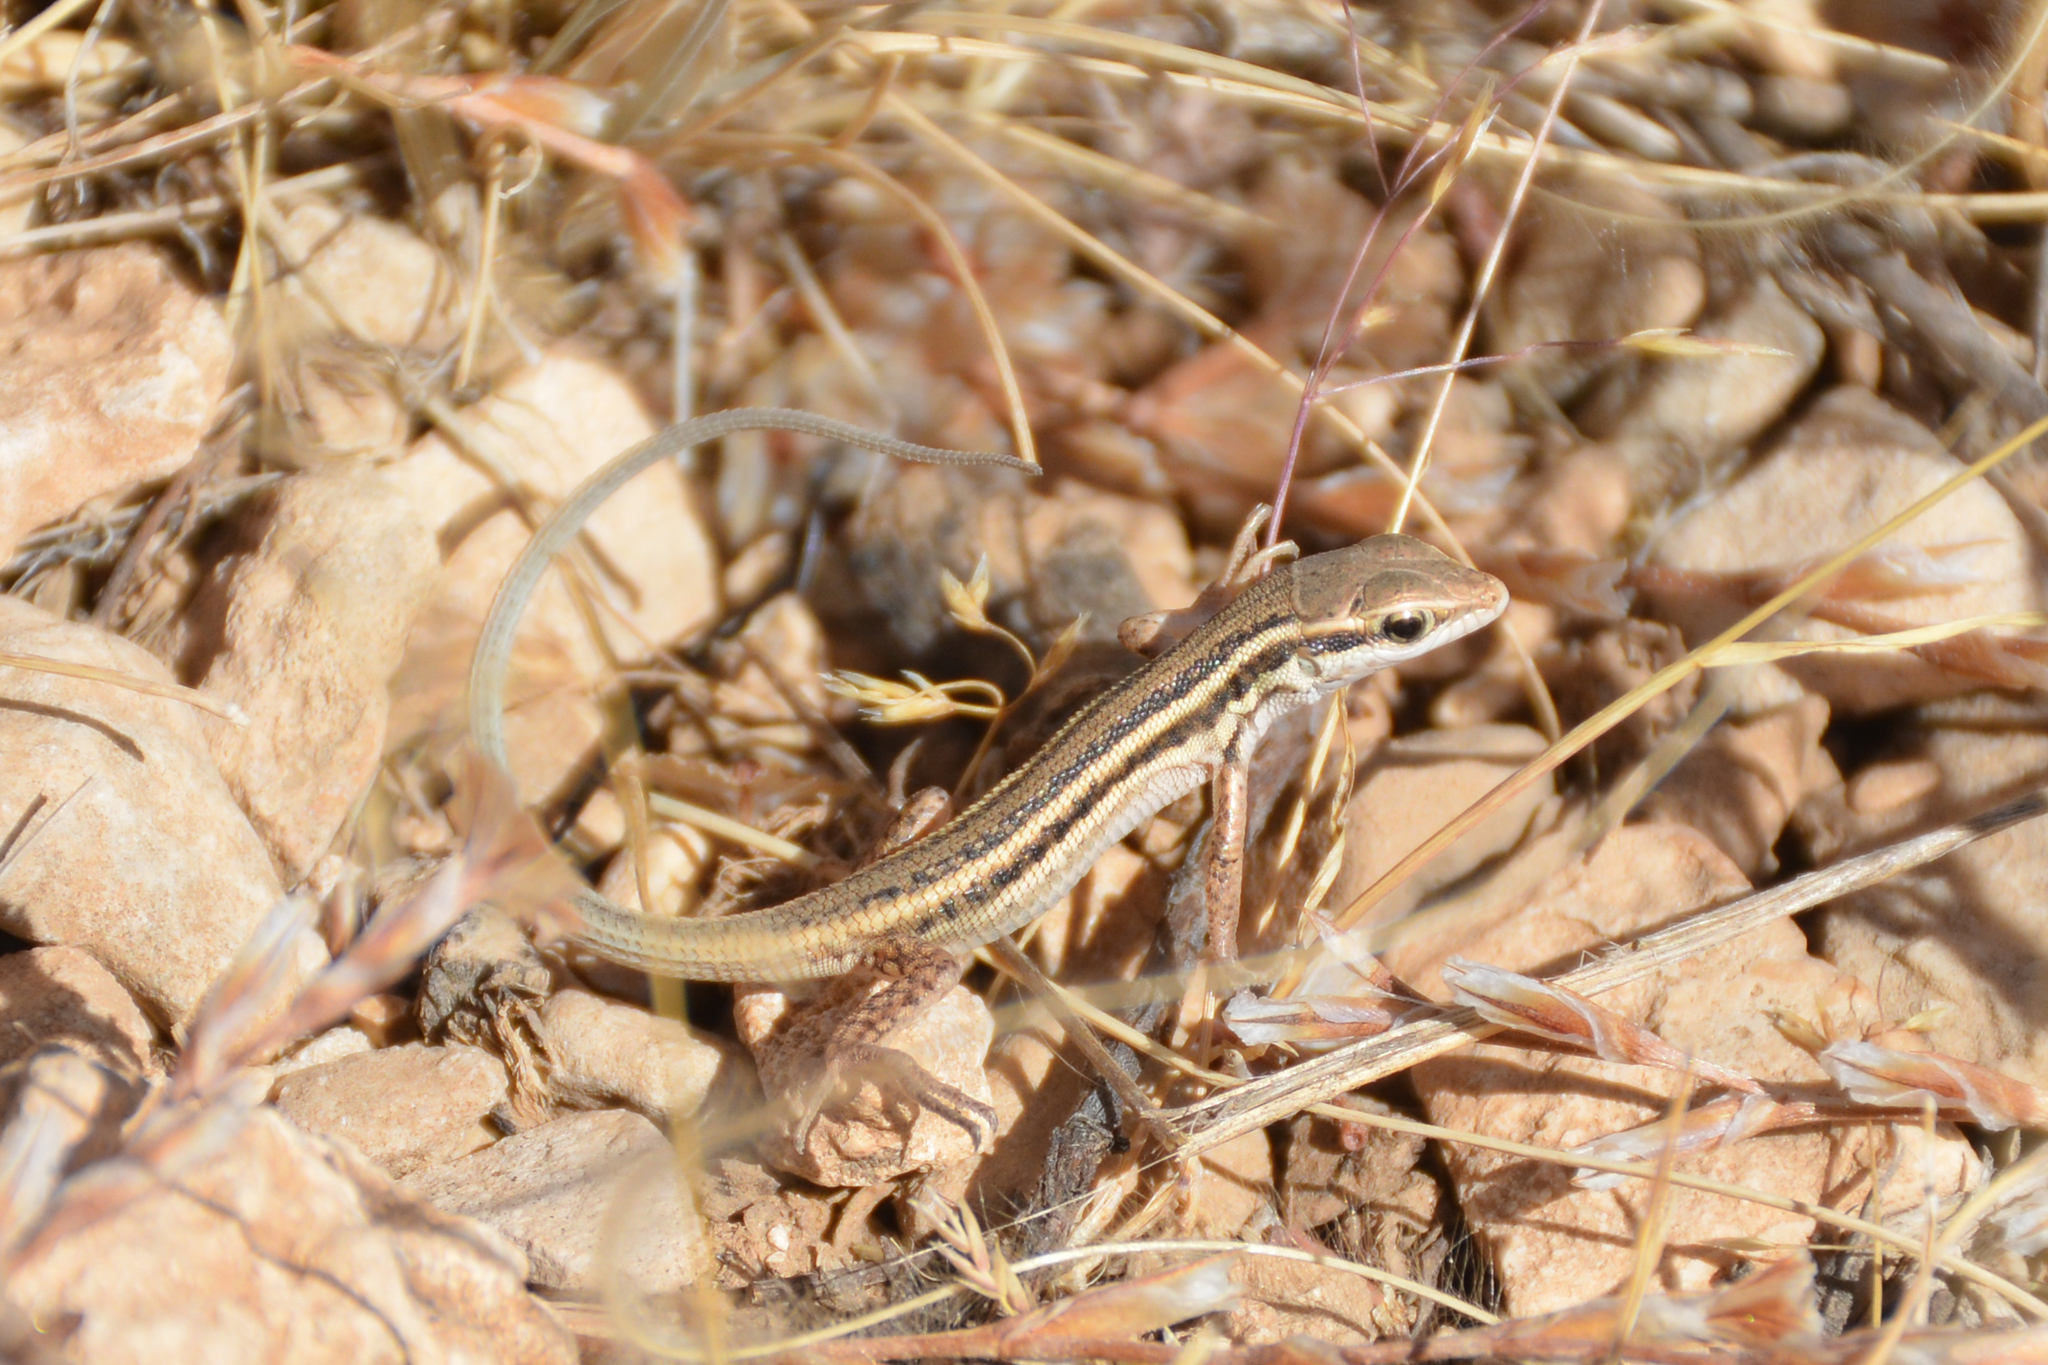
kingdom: Animalia
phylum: Chordata
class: Squamata
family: Lacertidae
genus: Ophisops
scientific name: Ophisops elegans
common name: Snake-eyed lizard
